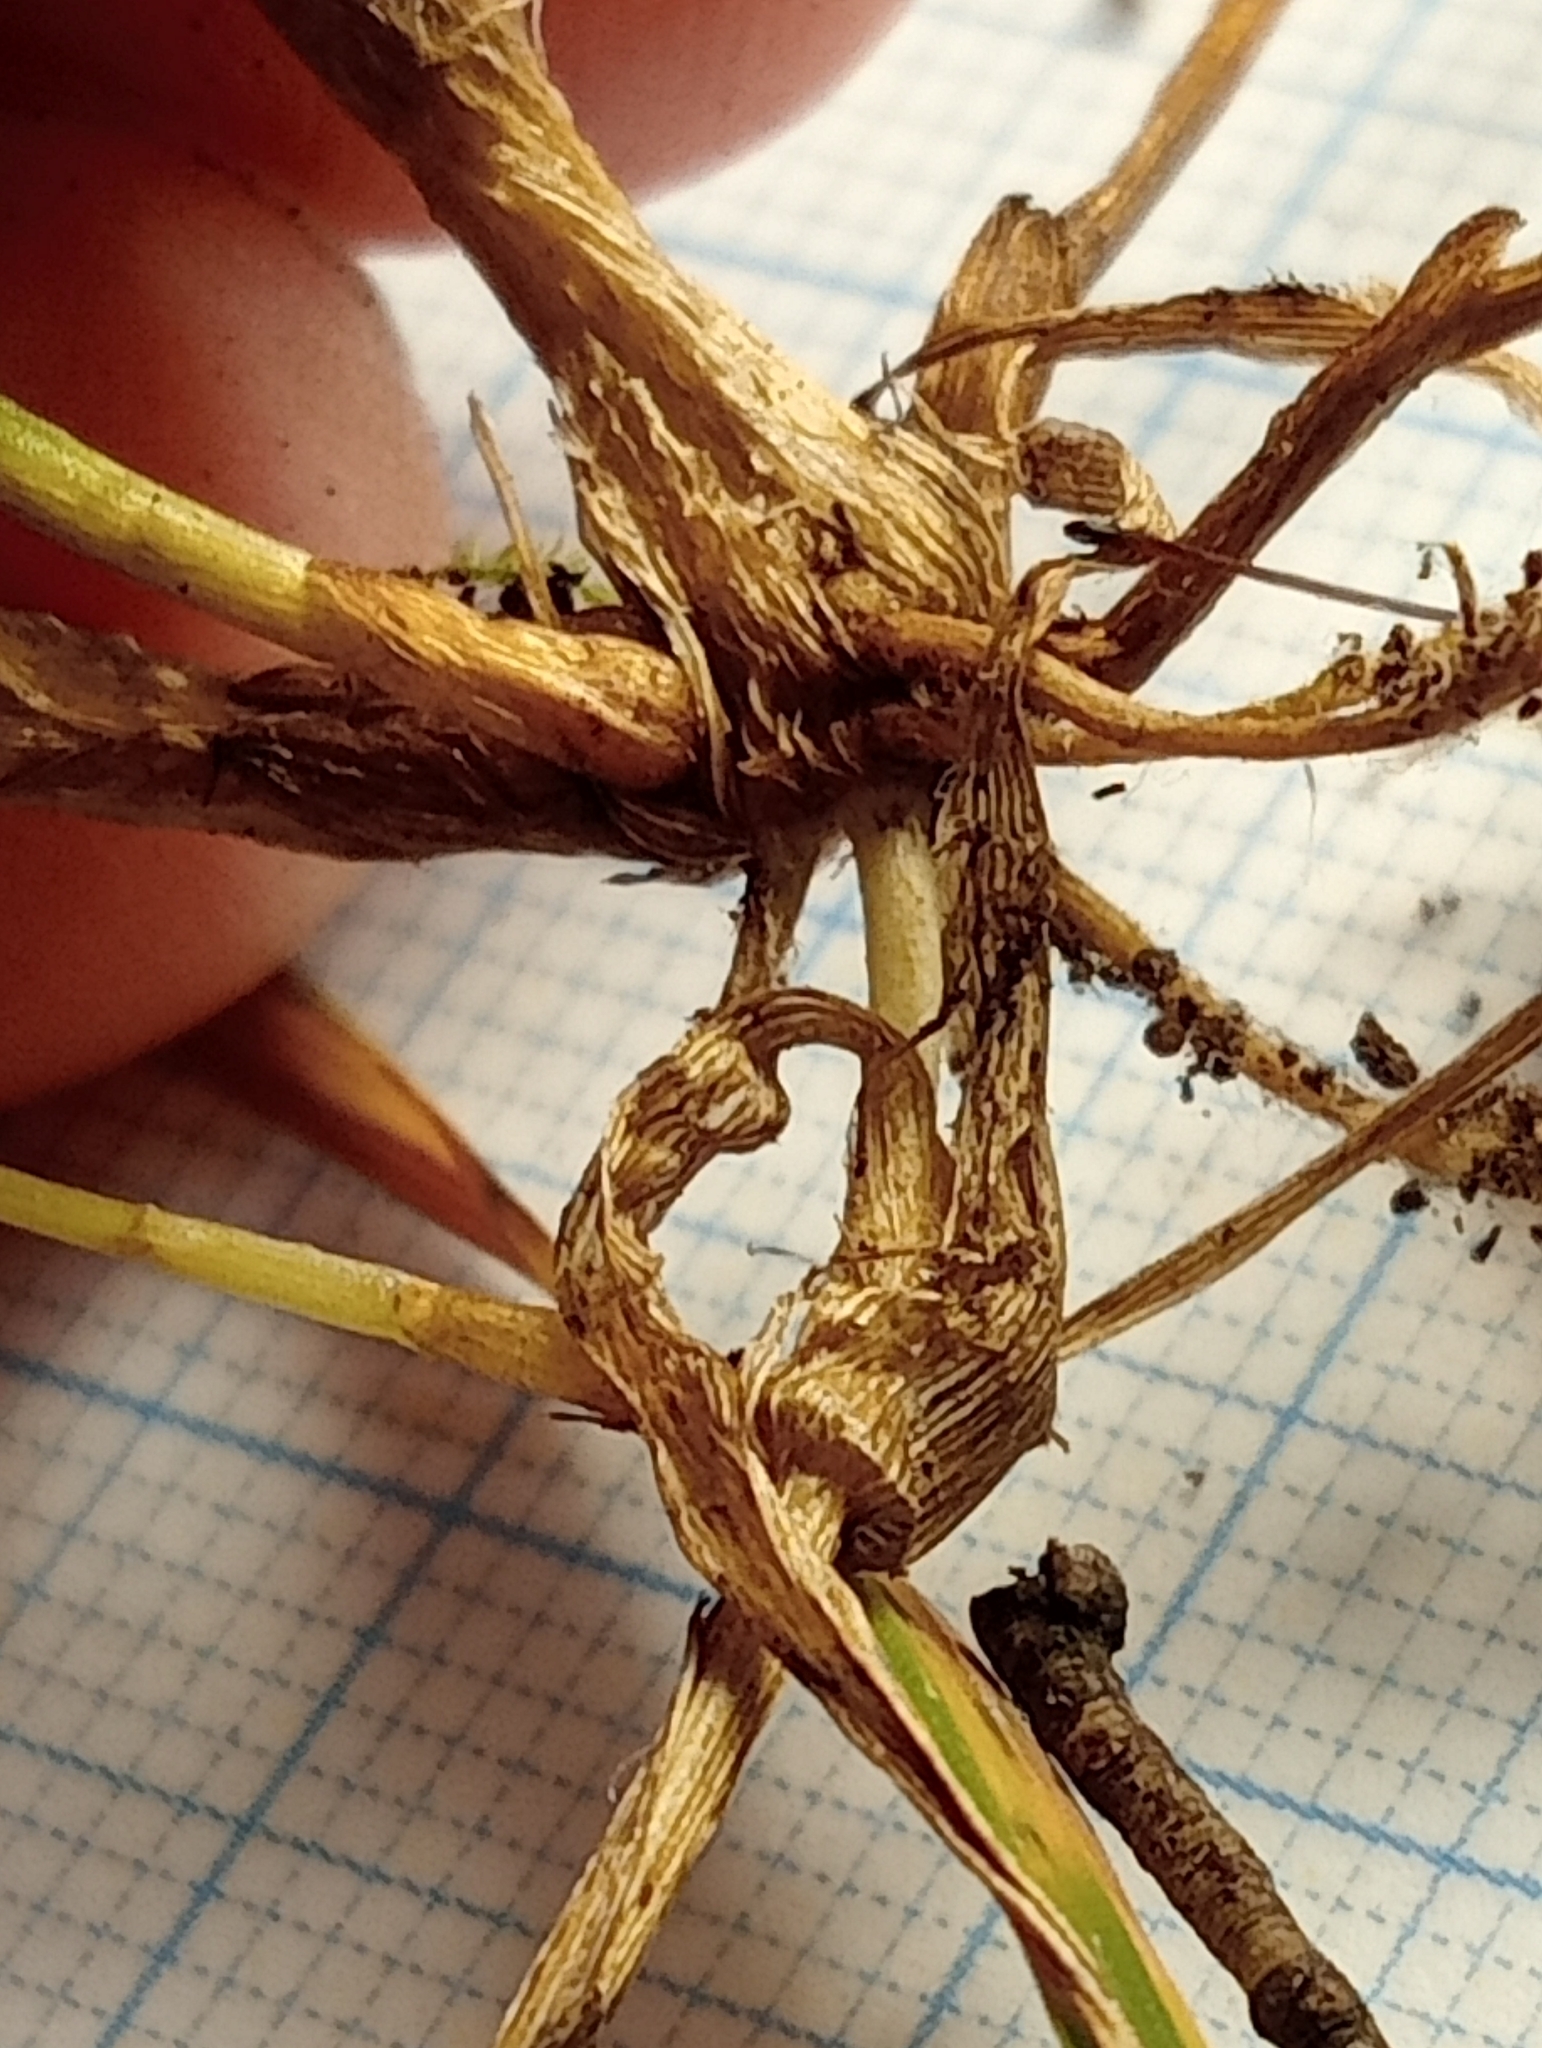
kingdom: Plantae
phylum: Tracheophyta
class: Liliopsida
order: Poales
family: Poaceae
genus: Lachnagrostis
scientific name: Lachnagrostis lyallii
